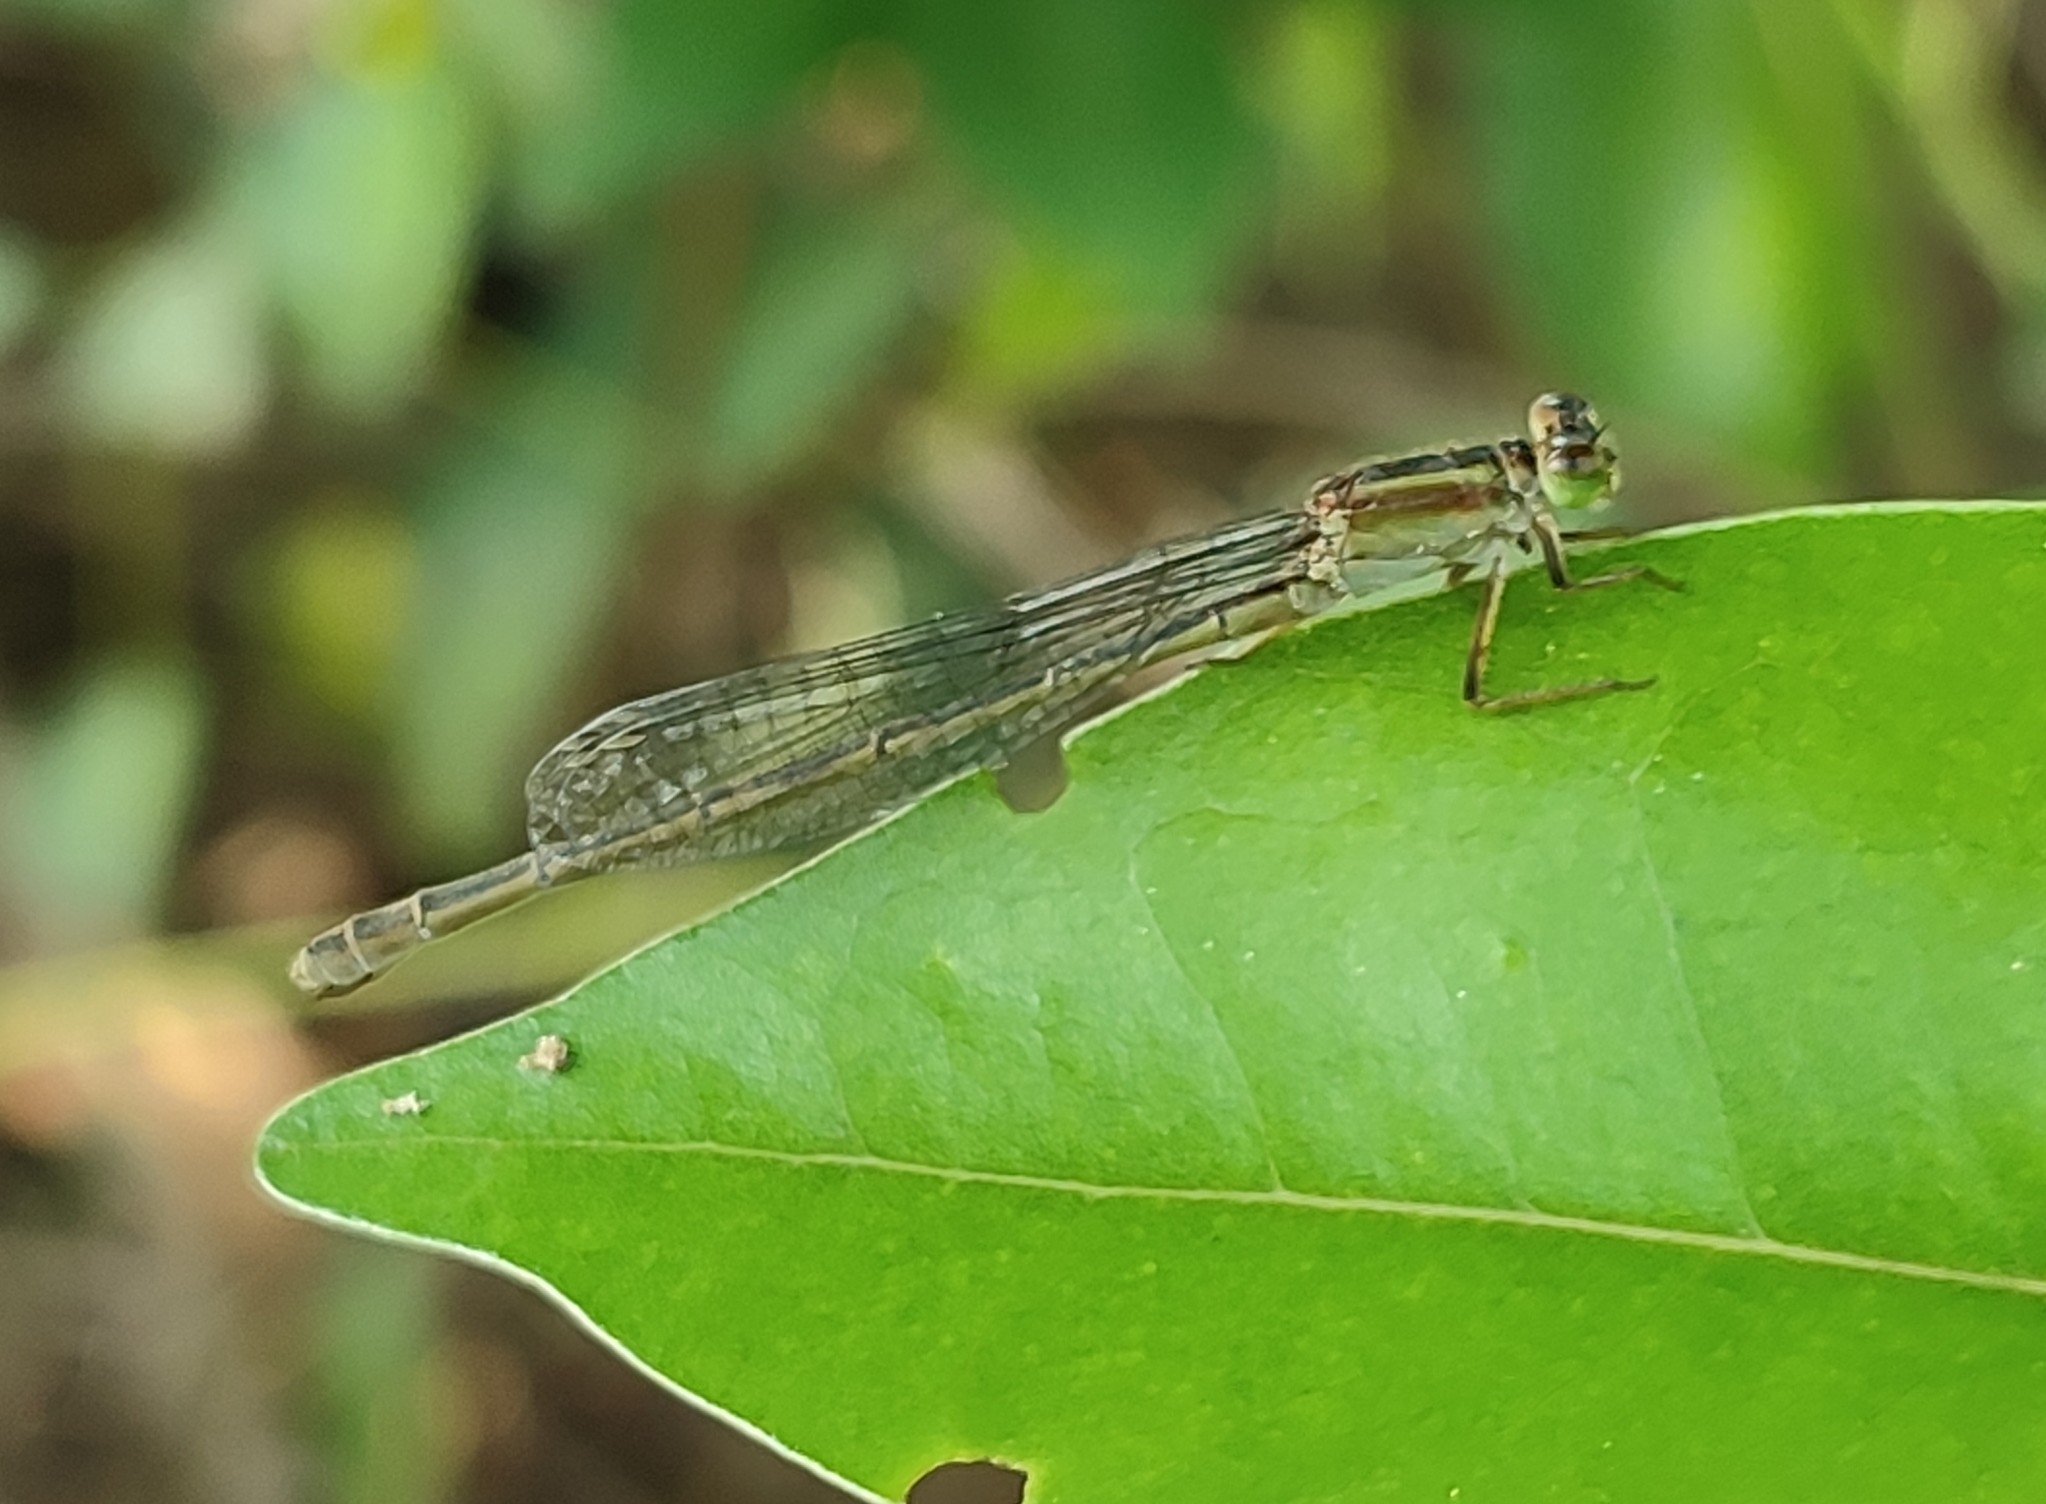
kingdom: Animalia
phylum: Arthropoda
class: Insecta
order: Odonata
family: Coenagrionidae
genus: Ischnura
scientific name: Ischnura senegalensis
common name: Tropical bluetail
